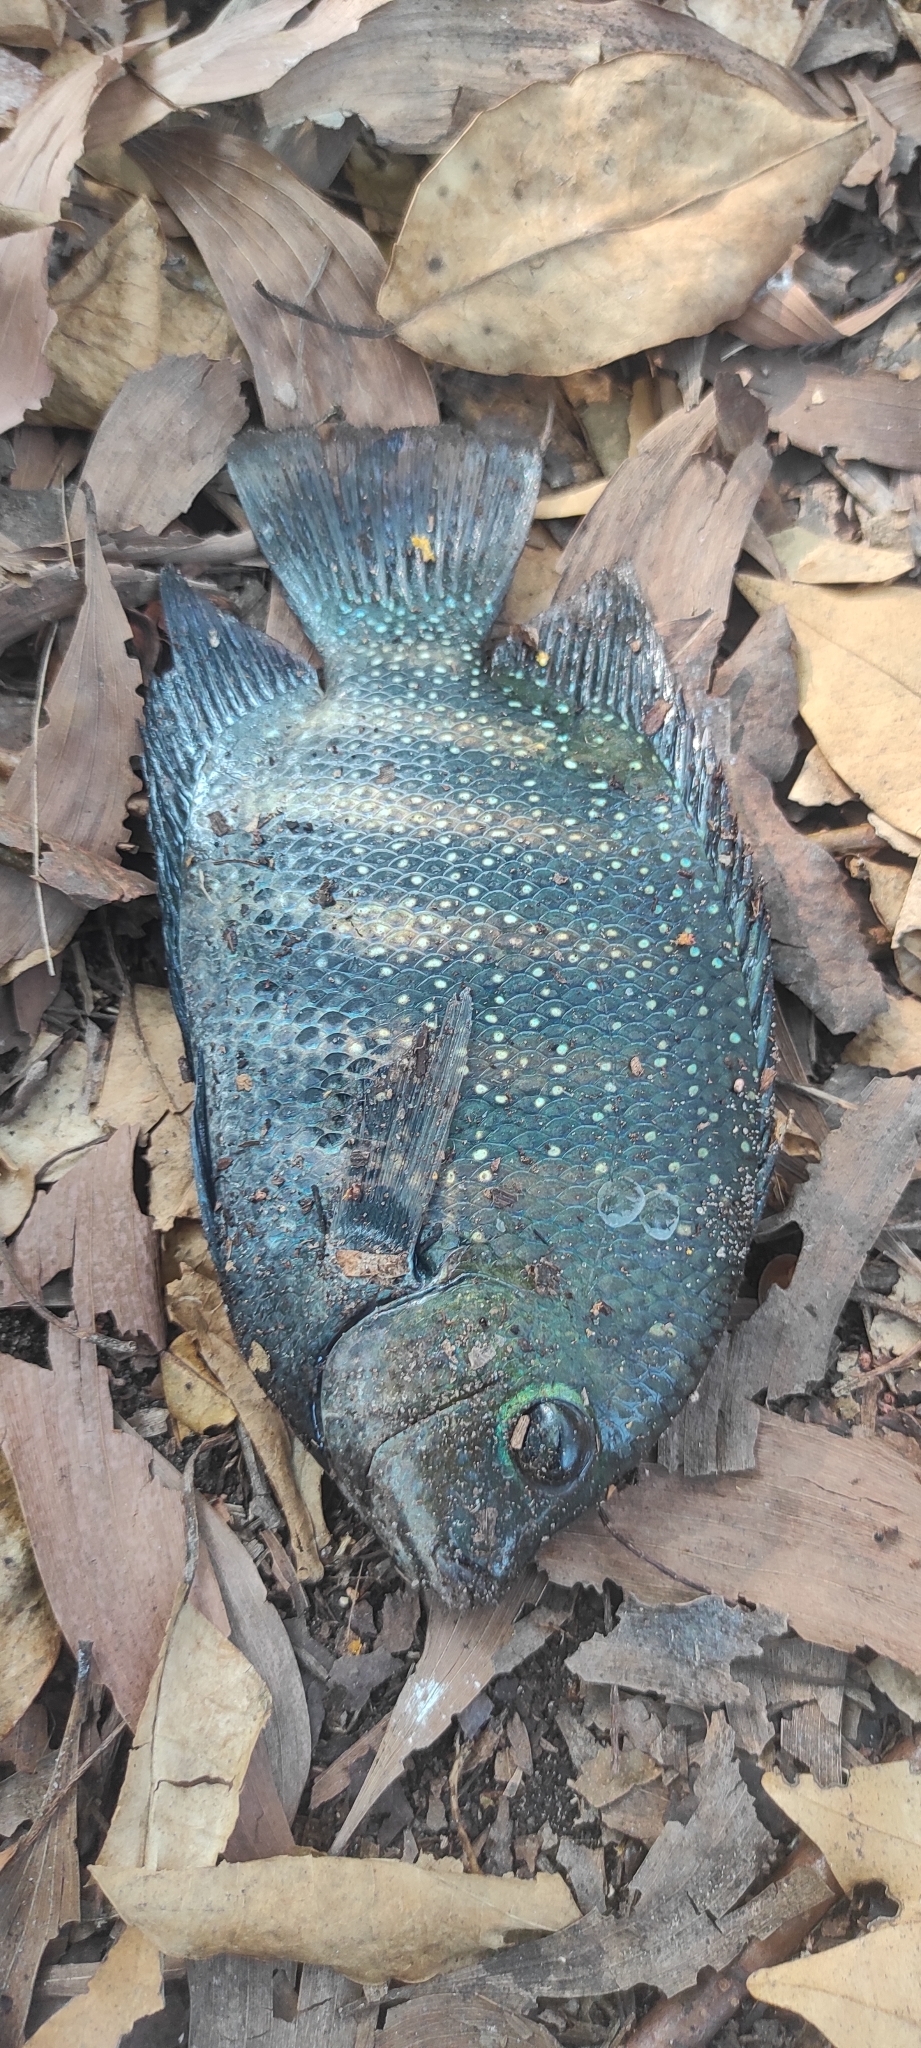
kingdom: Animalia
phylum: Chordata
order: Perciformes
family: Cichlidae
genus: Etroplus
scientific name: Etroplus suratensis
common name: Green chromide
